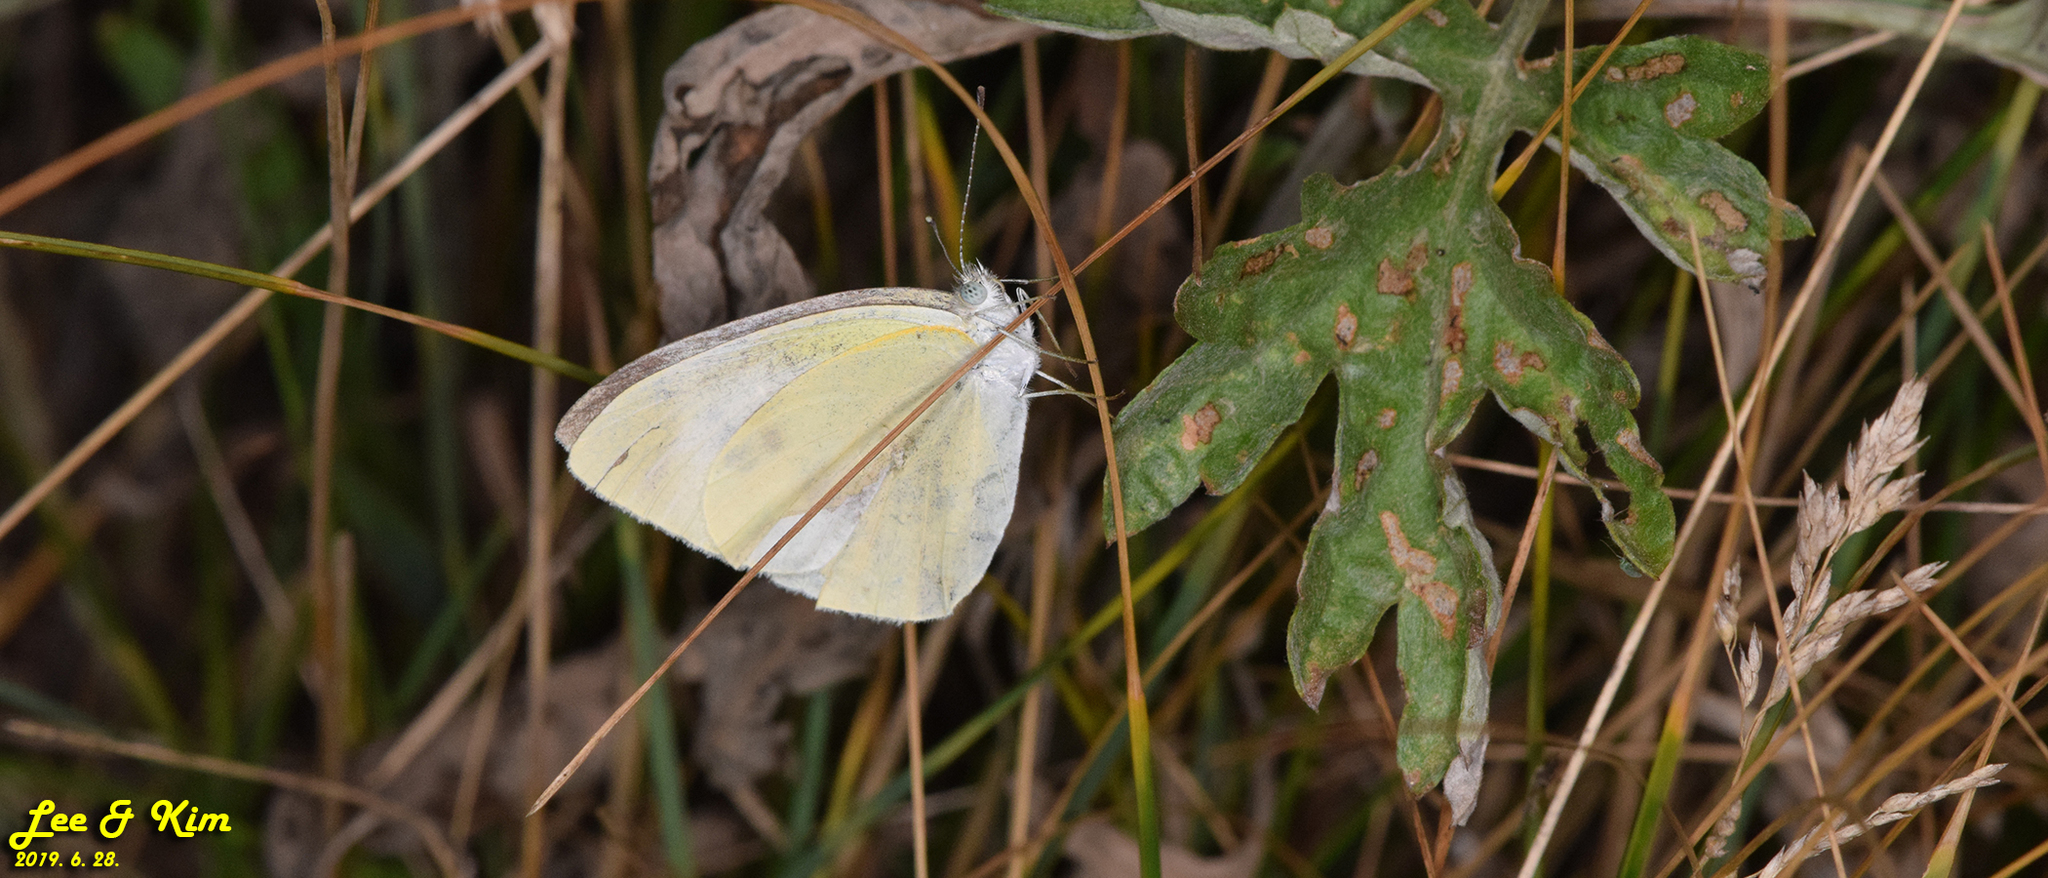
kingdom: Animalia
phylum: Arthropoda
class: Insecta
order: Lepidoptera
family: Pieridae
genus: Pieris
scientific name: Pieris rapae
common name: Small white
